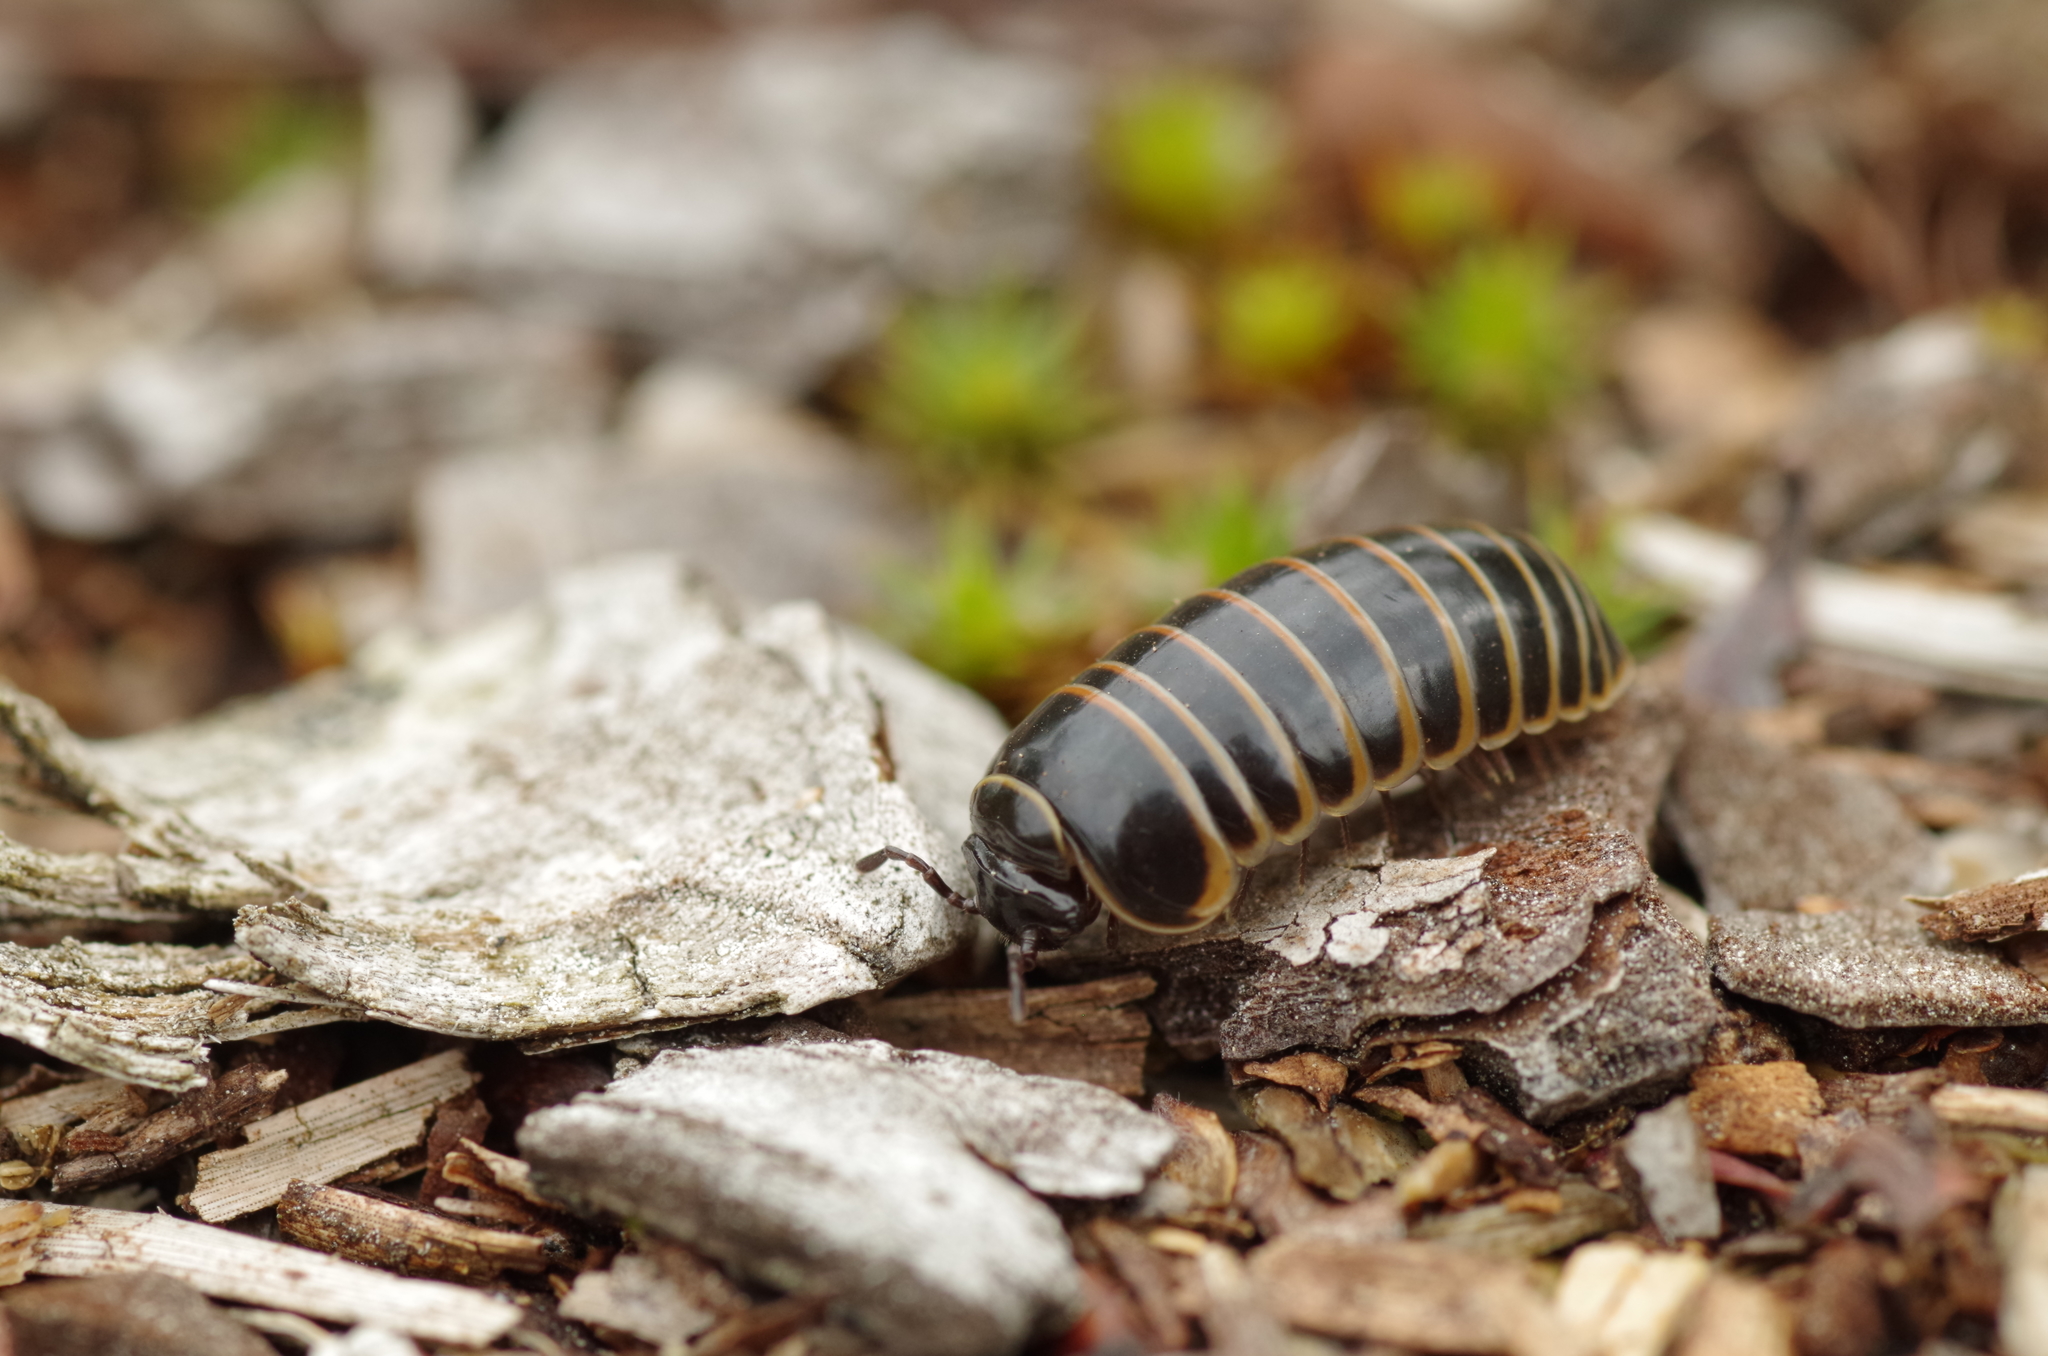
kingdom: Animalia
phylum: Arthropoda
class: Diplopoda
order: Glomerida
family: Glomeridae
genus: Glomeris
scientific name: Glomeris marginata
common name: Bordered pill millipede
